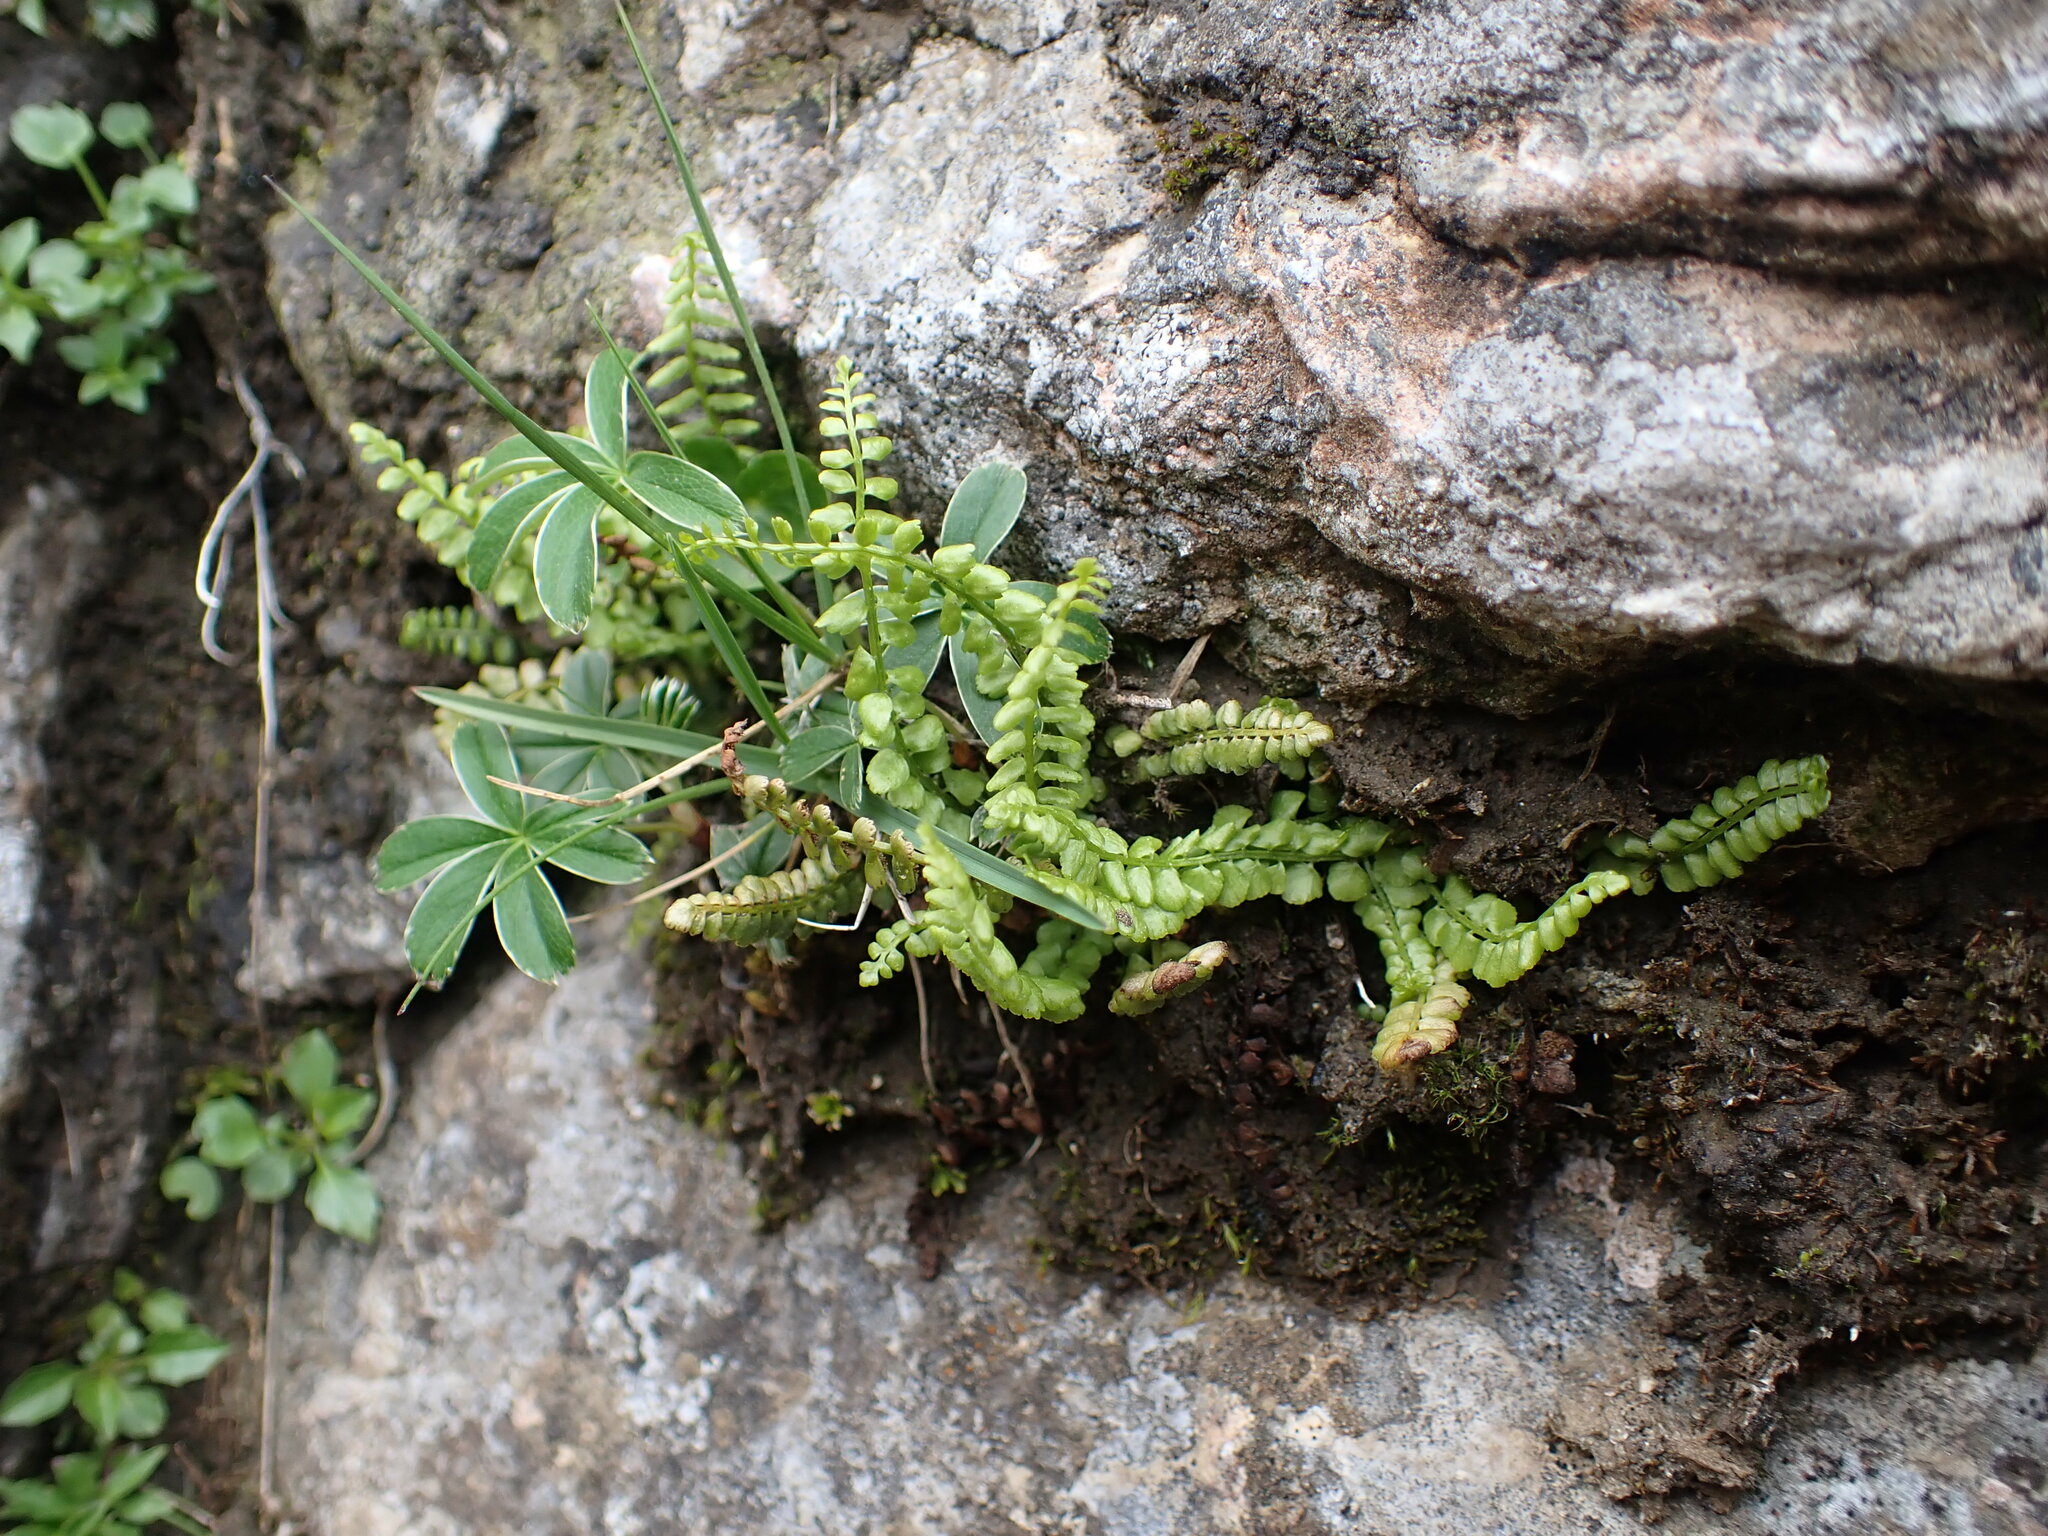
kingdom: Plantae
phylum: Tracheophyta
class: Polypodiopsida
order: Polypodiales
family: Aspleniaceae
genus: Asplenium
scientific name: Asplenium viride
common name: Green spleenwort
